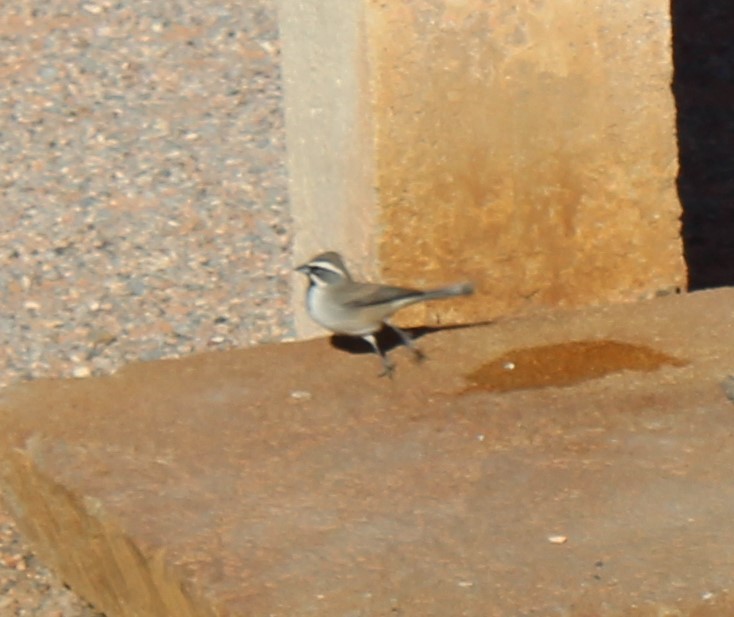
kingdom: Animalia
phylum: Chordata
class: Aves
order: Passeriformes
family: Passerellidae
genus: Amphispiza
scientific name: Amphispiza bilineata
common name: Black-throated sparrow
